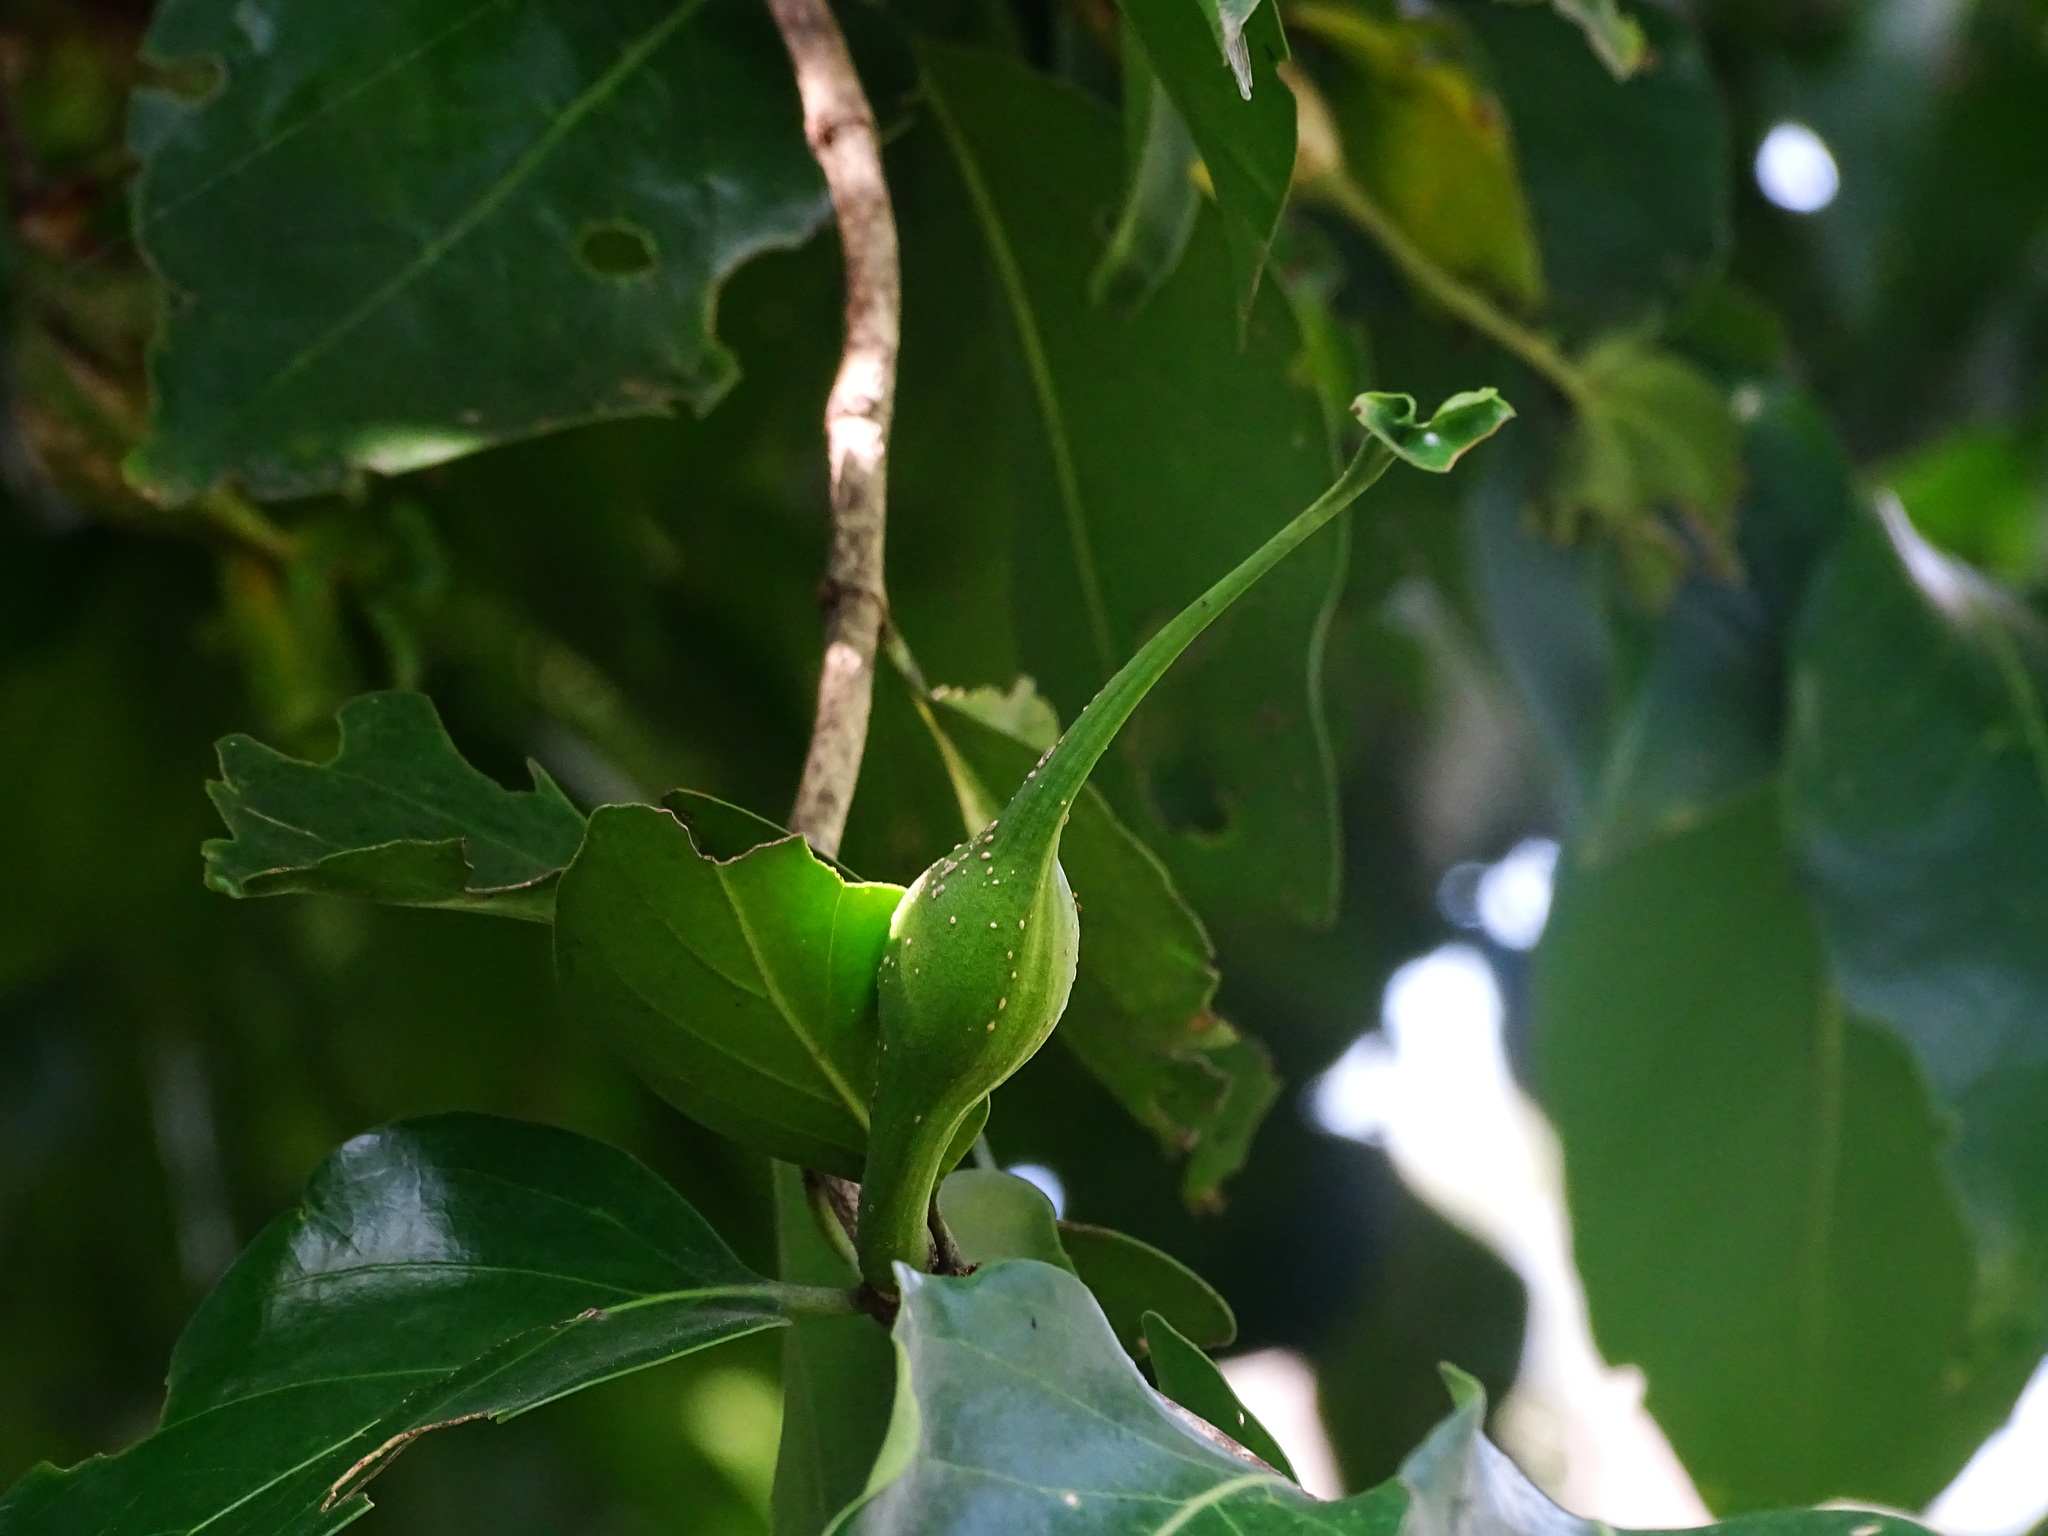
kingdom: Plantae
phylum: Tracheophyta
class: Magnoliopsida
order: Gentianales
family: Rubiaceae
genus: Psydrax
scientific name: Psydrax dicoccos
